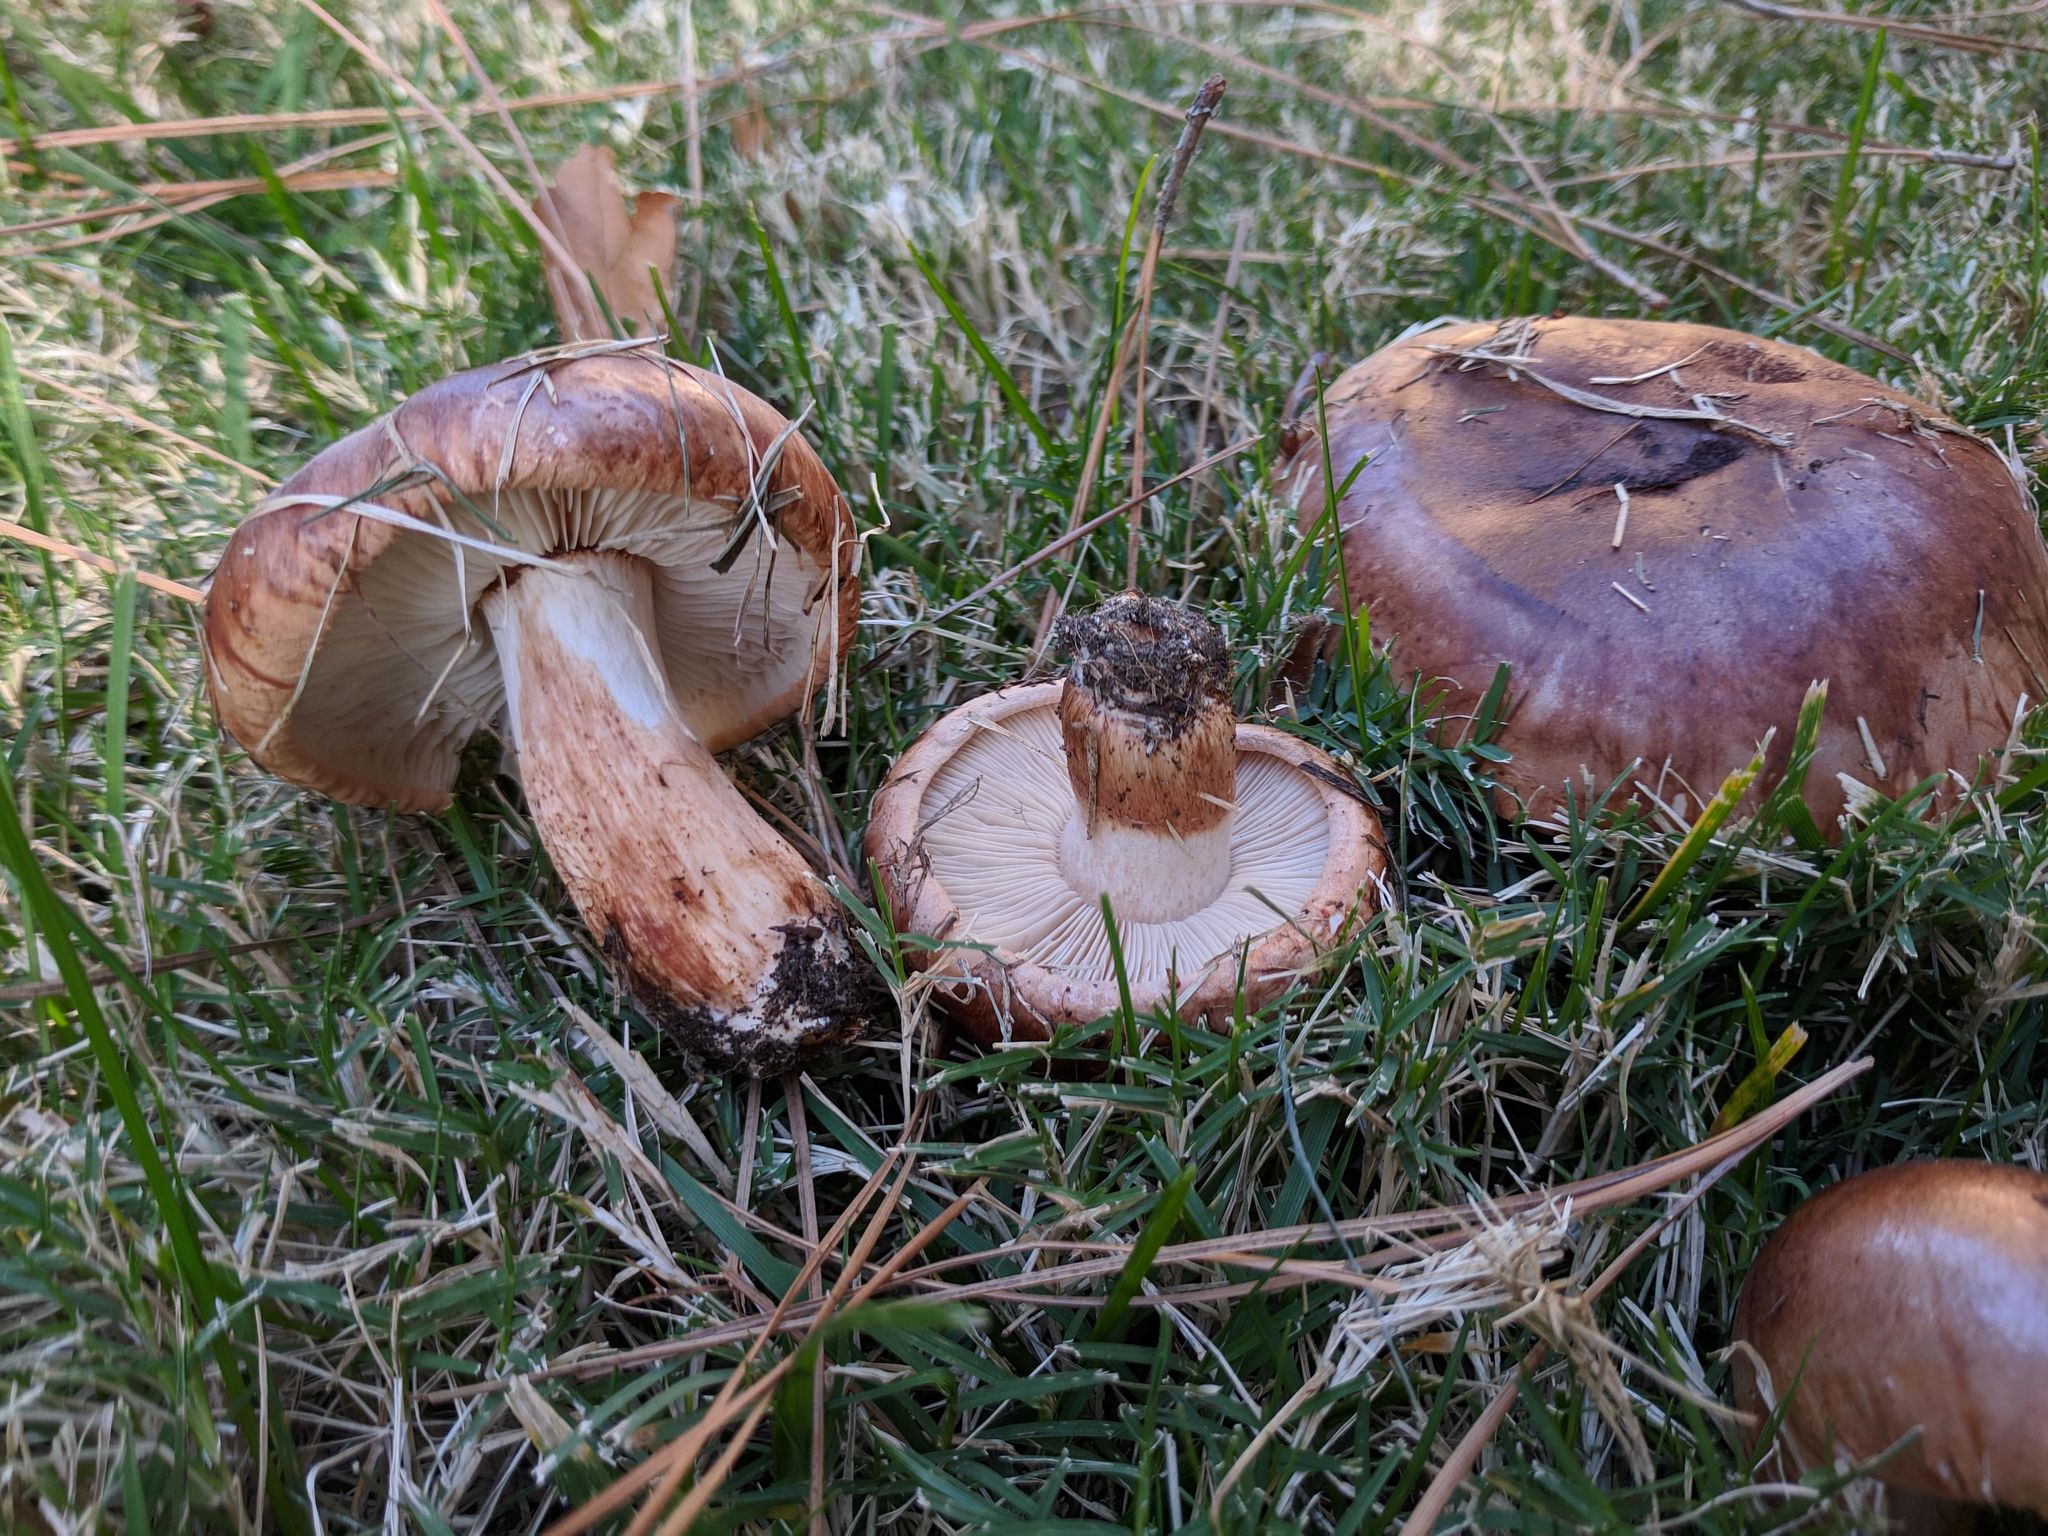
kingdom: Fungi
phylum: Basidiomycota
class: Agaricomycetes
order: Agaricales
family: Tricholomataceae
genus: Tricholoma
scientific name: Tricholoma fracticum
